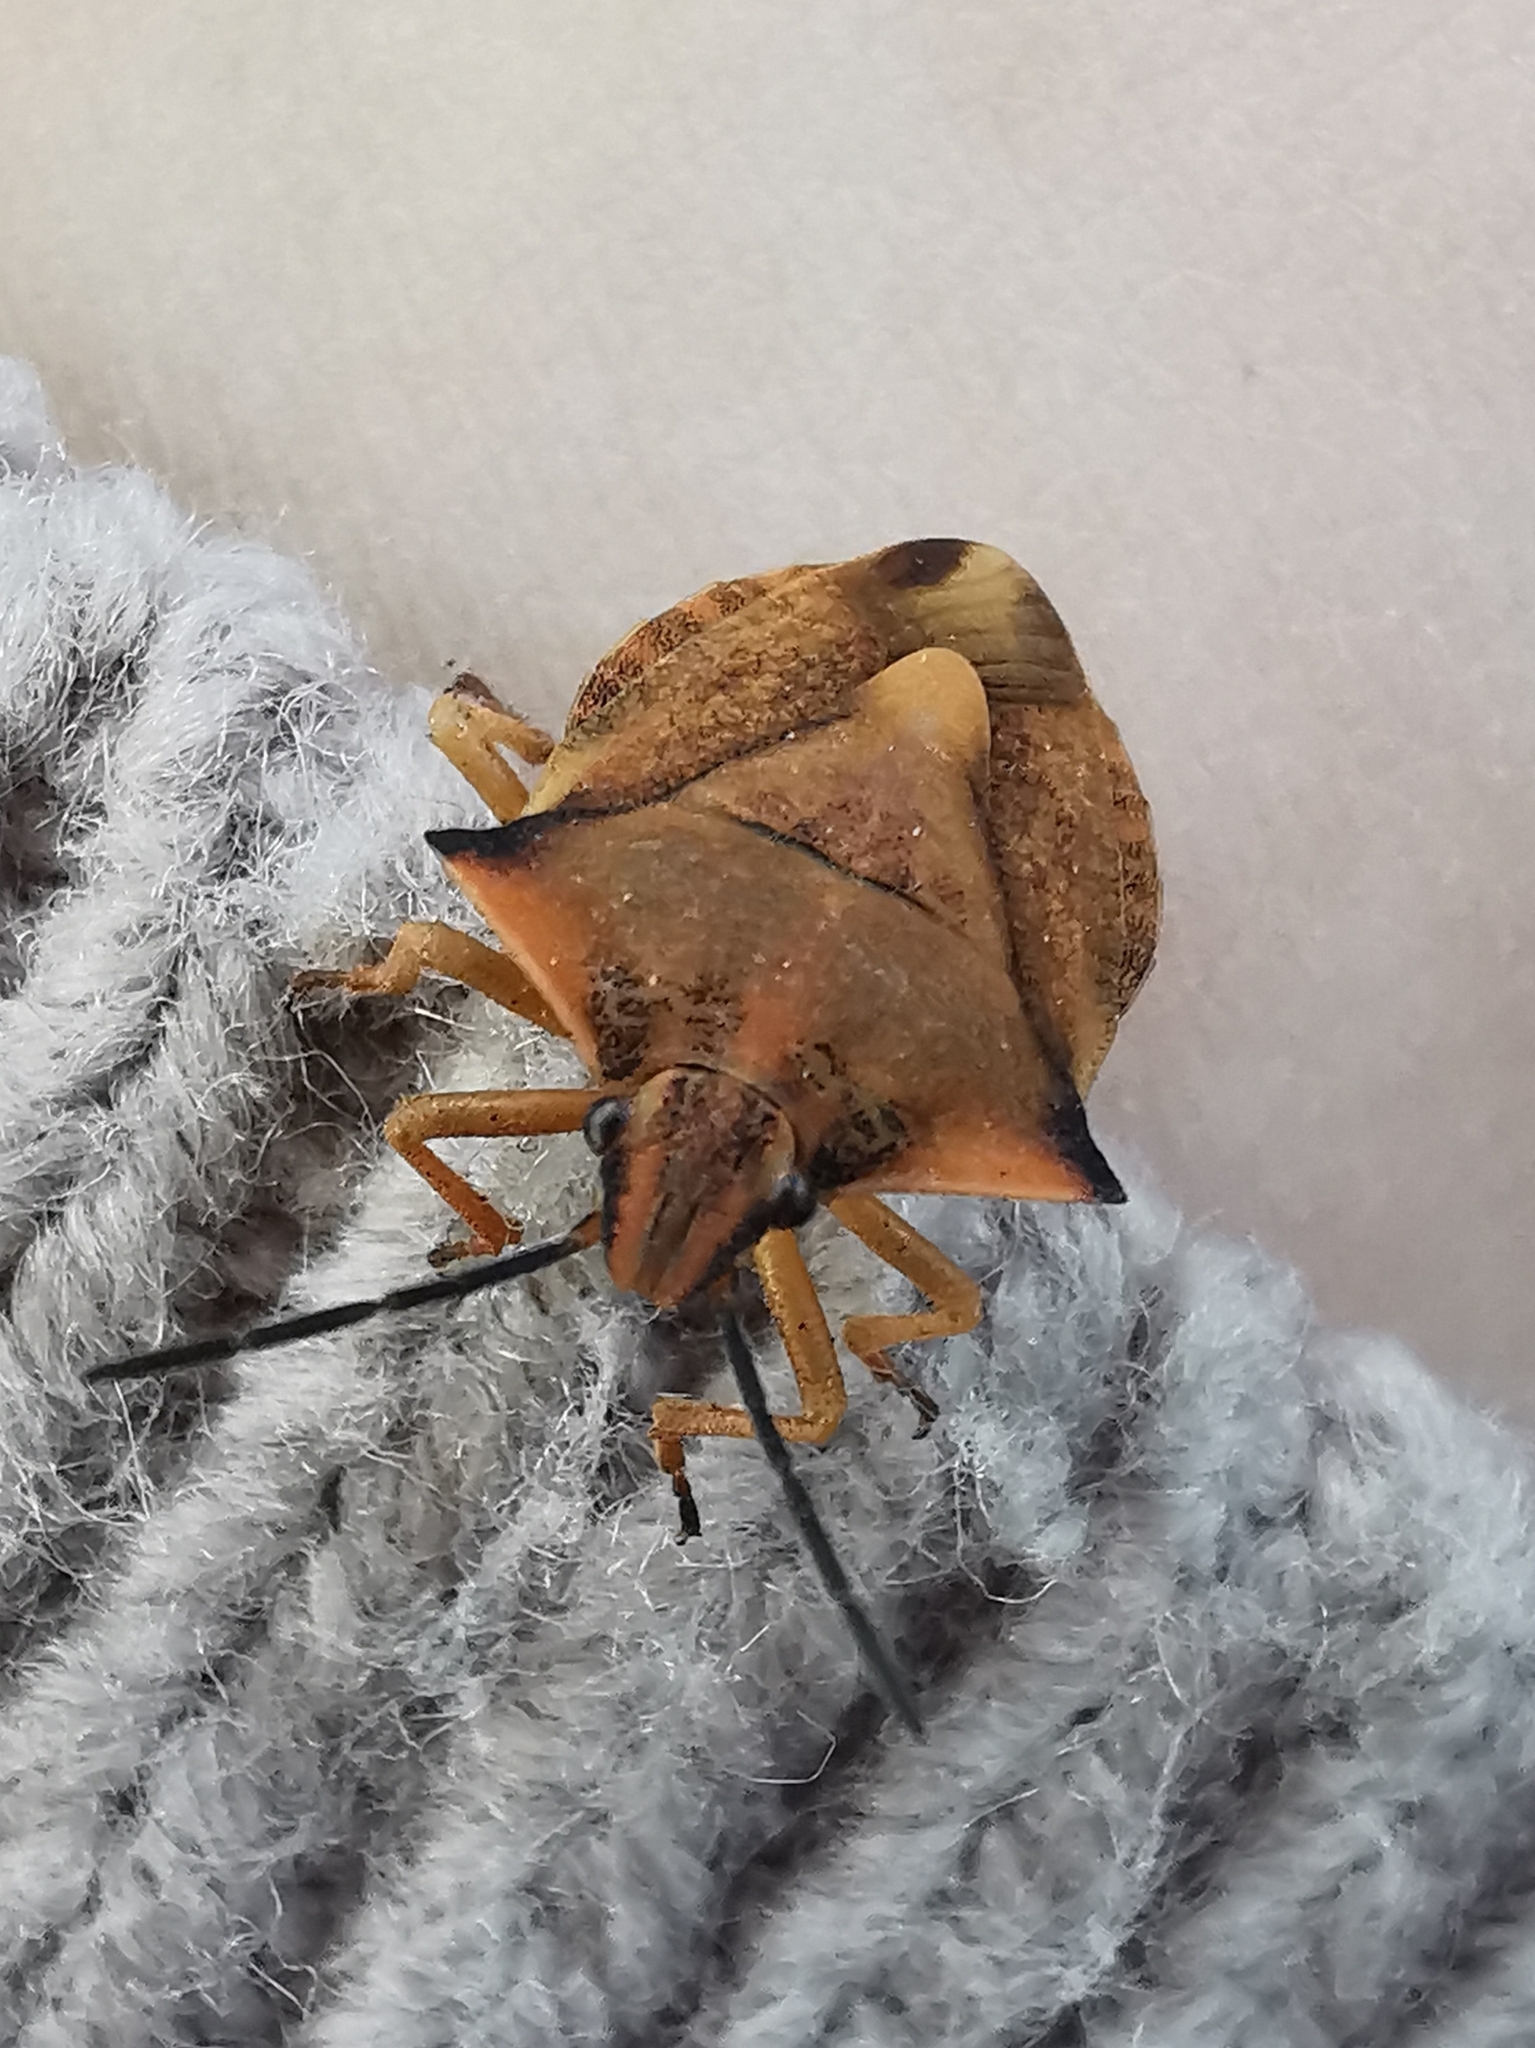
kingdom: Animalia
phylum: Arthropoda
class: Insecta
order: Hemiptera
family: Pentatomidae
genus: Carpocoris
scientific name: Carpocoris fuscispinus
